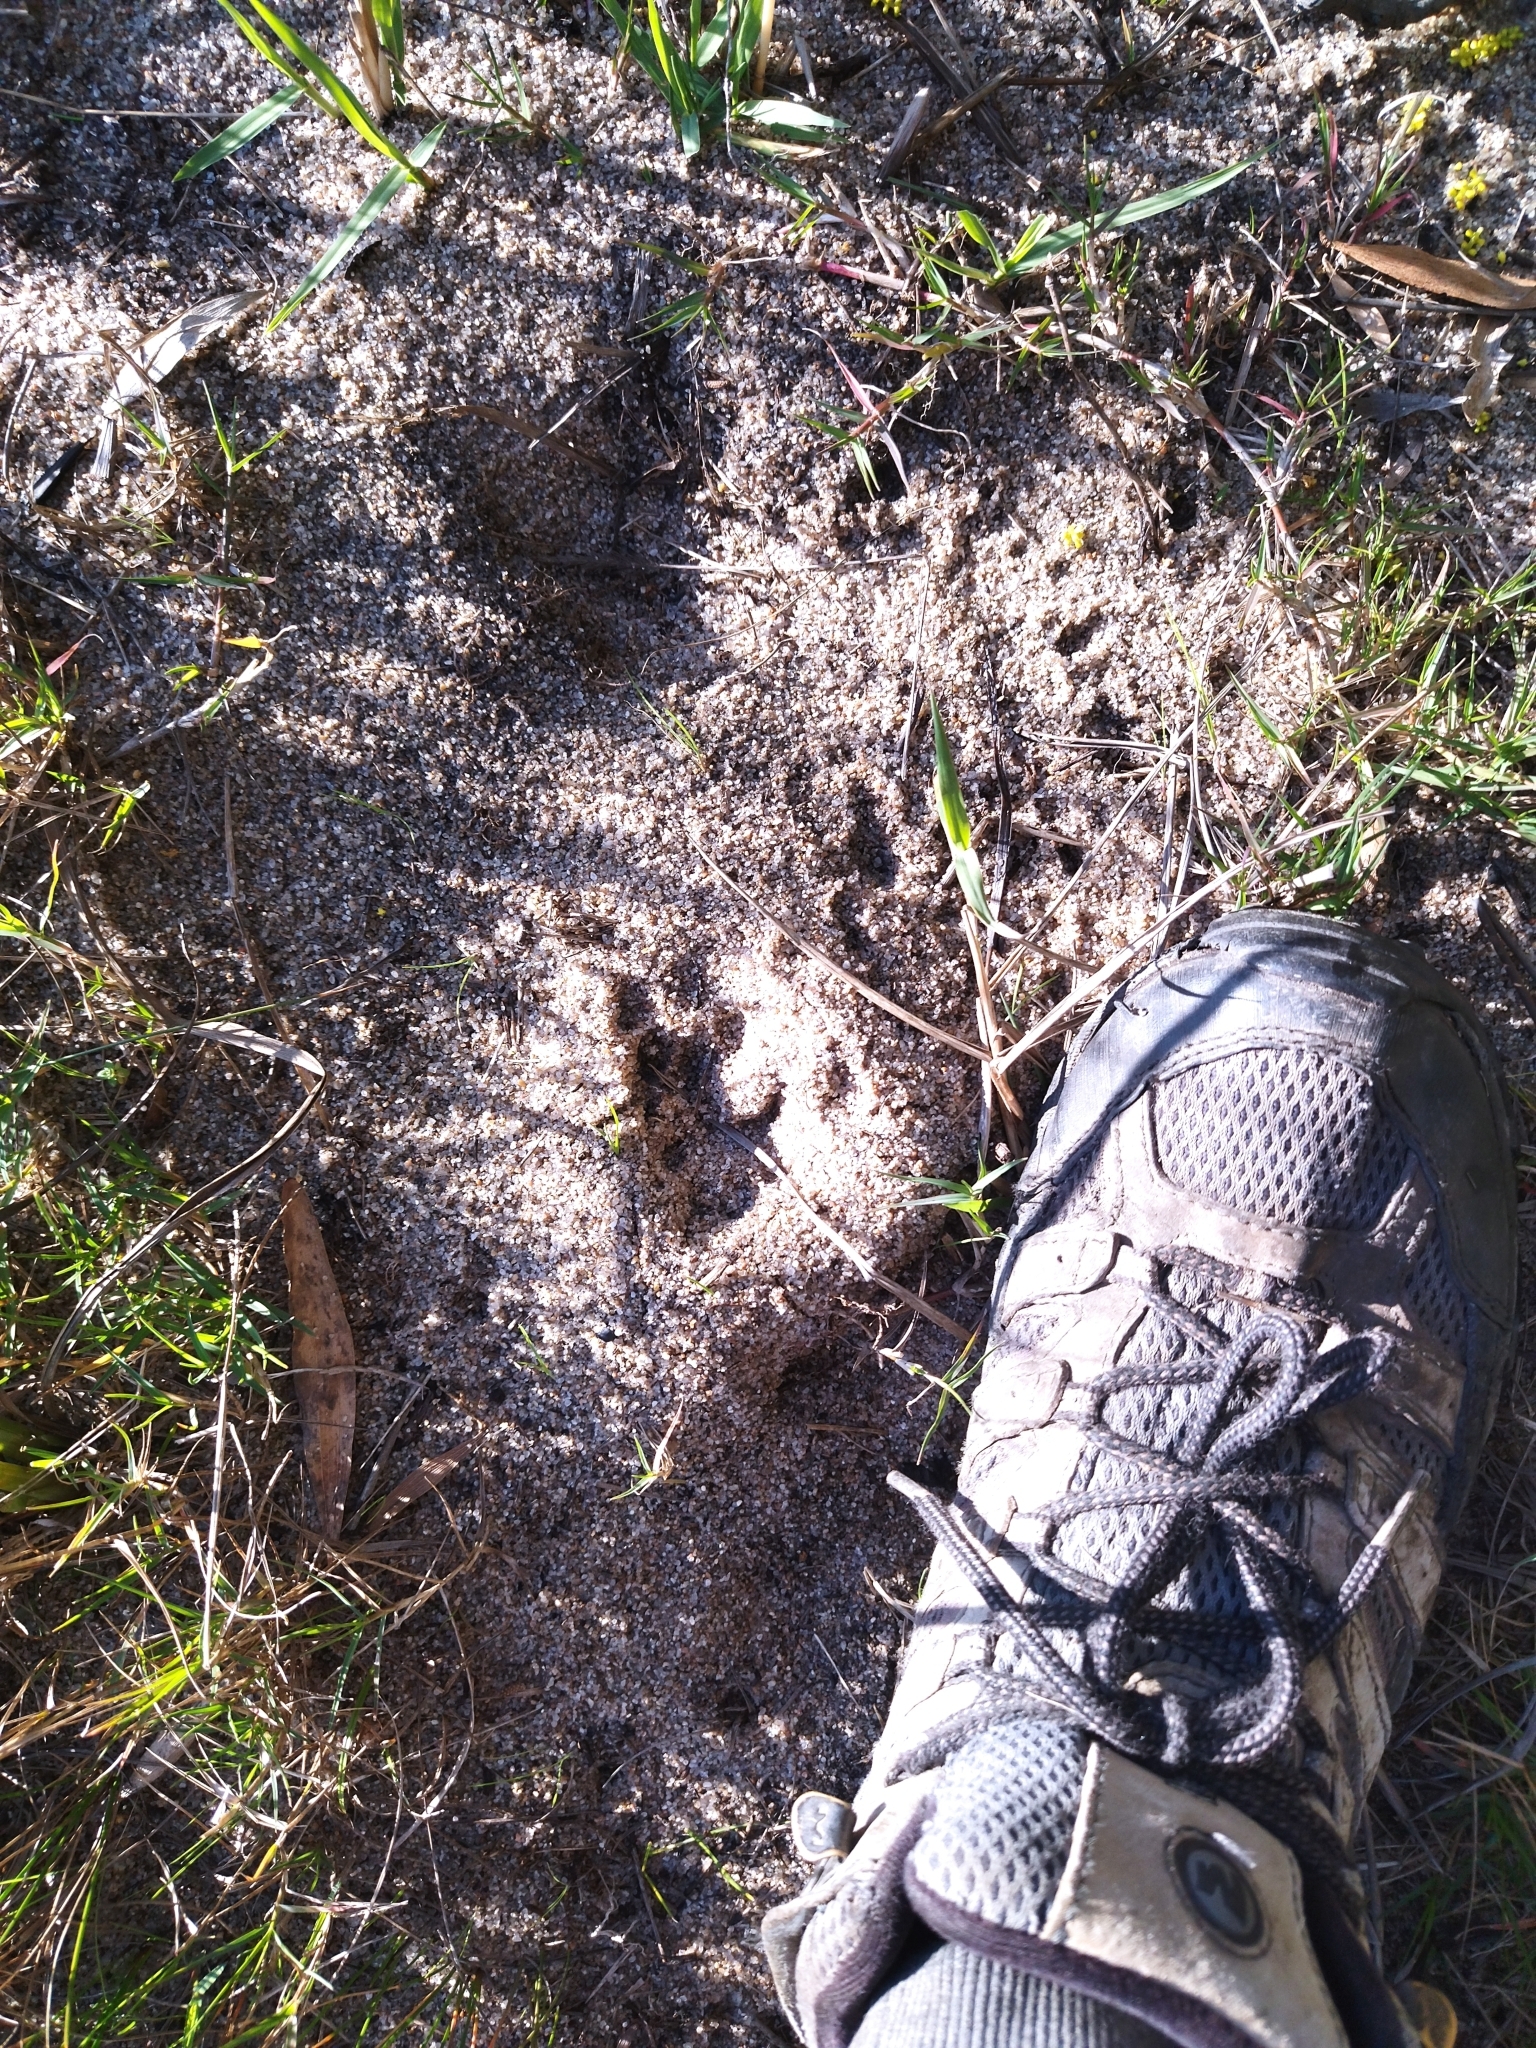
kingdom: Animalia
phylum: Chordata
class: Mammalia
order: Rodentia
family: Caviidae
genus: Hydrochoerus
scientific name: Hydrochoerus hydrochaeris
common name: Capybara
